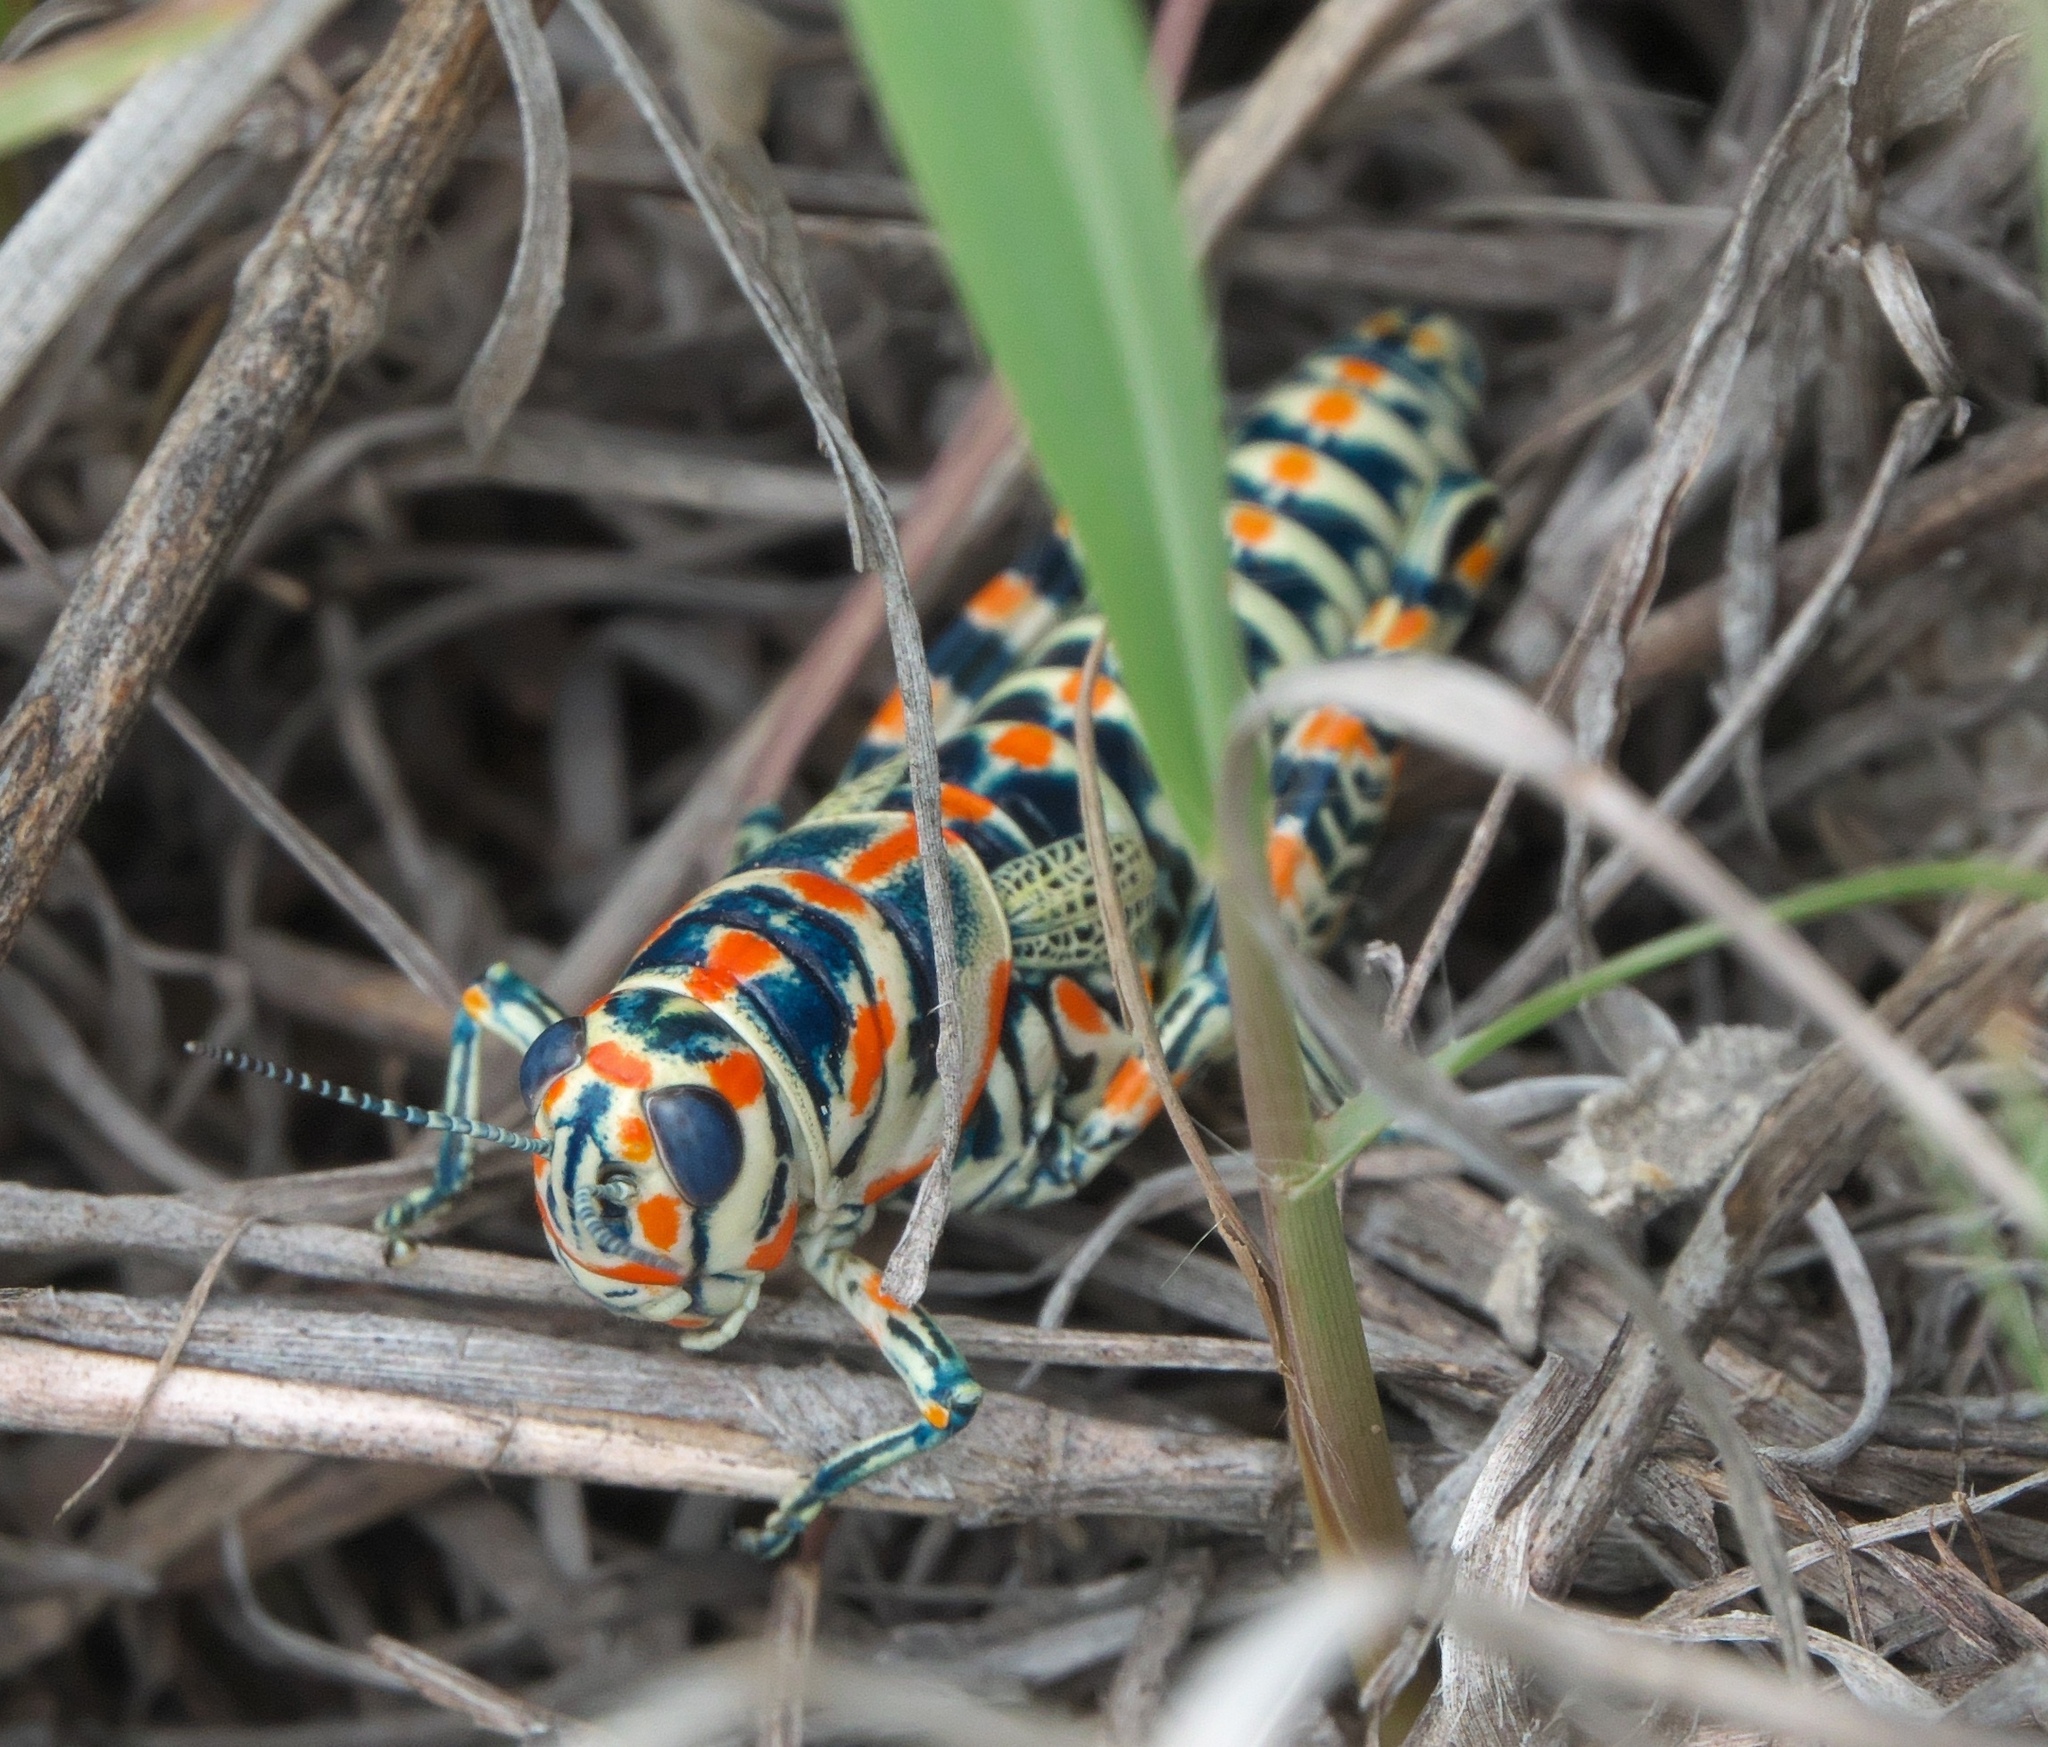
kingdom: Animalia
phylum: Arthropoda
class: Insecta
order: Orthoptera
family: Acrididae
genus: Dactylotum
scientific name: Dactylotum bicolor
